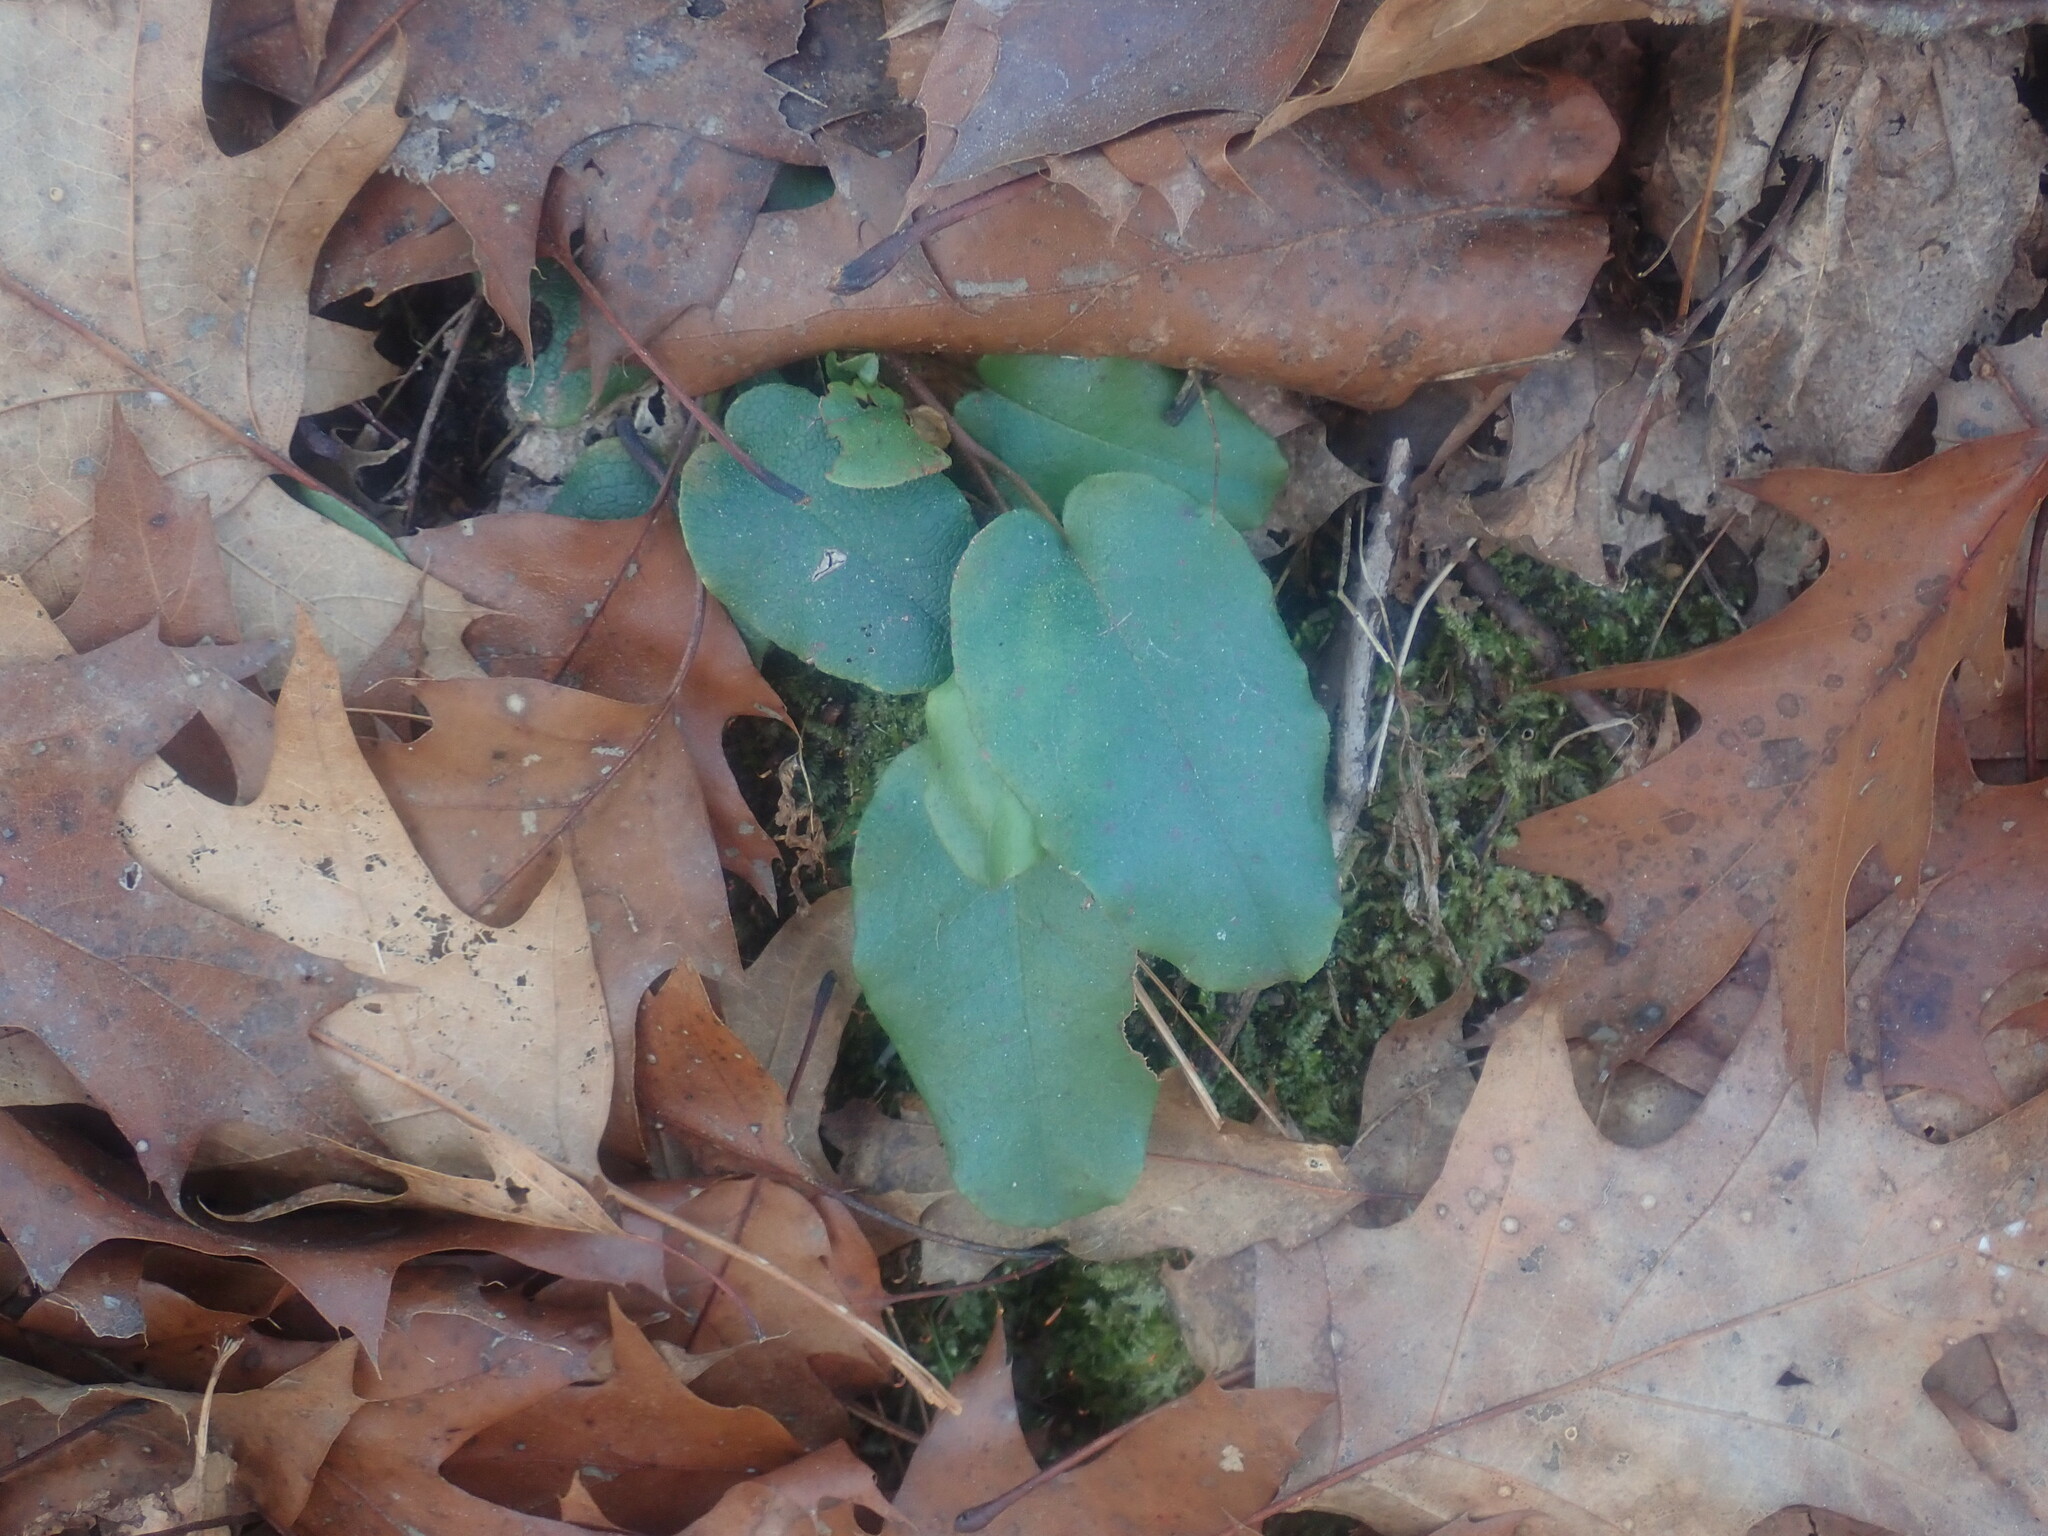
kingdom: Plantae
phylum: Tracheophyta
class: Magnoliopsida
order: Ericales
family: Ericaceae
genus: Epigaea
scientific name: Epigaea repens
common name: Gravelroot
